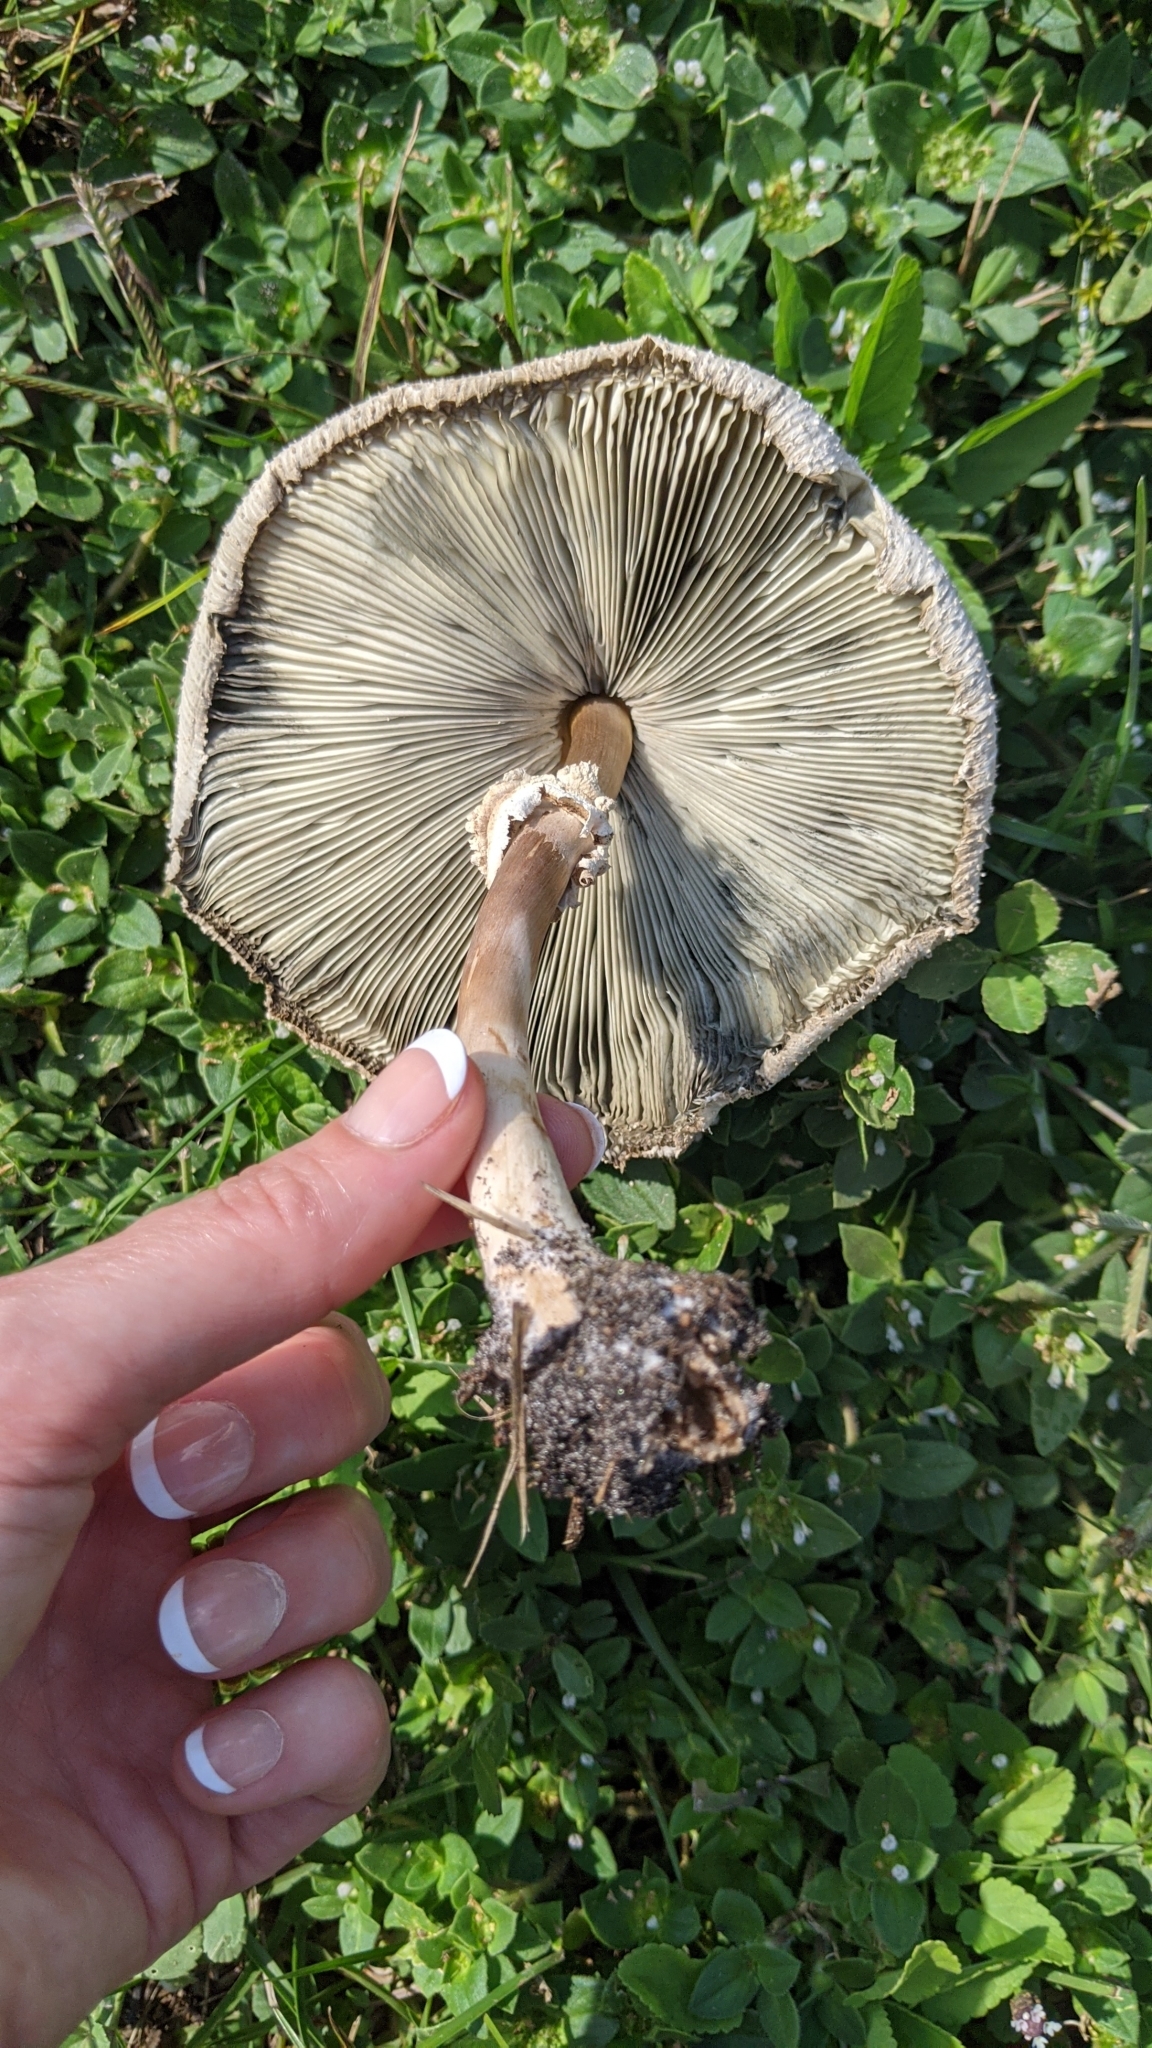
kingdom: Fungi
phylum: Basidiomycota
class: Agaricomycetes
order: Agaricales
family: Agaricaceae
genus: Chlorophyllum
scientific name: Chlorophyllum molybdites
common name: False parasol
